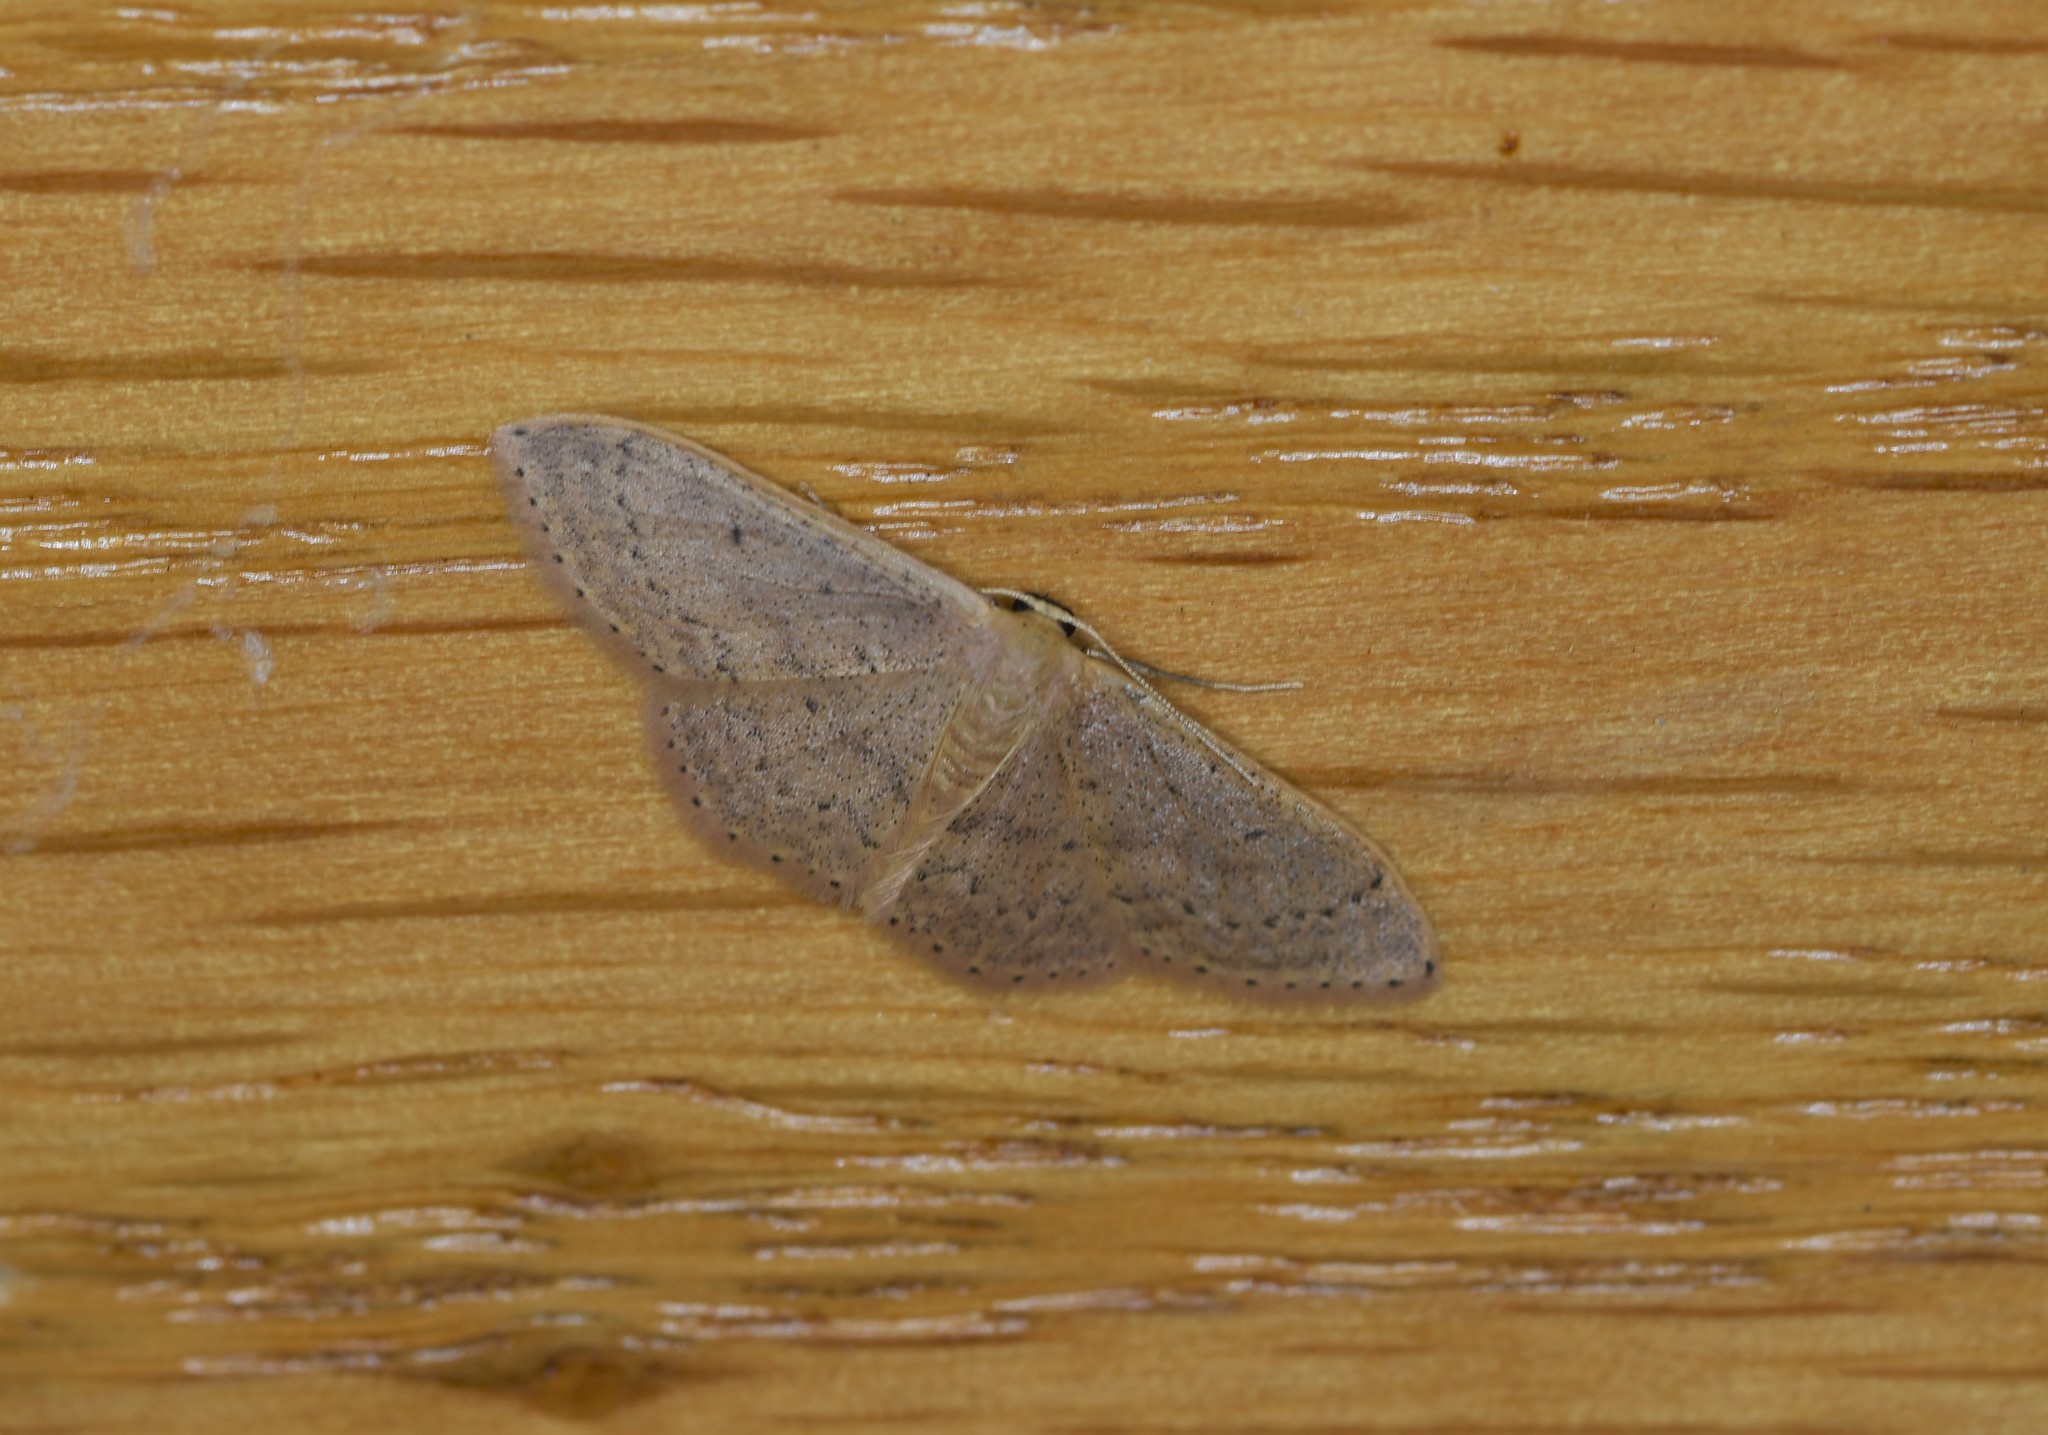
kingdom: Animalia
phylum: Arthropoda
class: Insecta
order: Lepidoptera
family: Geometridae
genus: Idaea
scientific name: Idaea eugeniata
